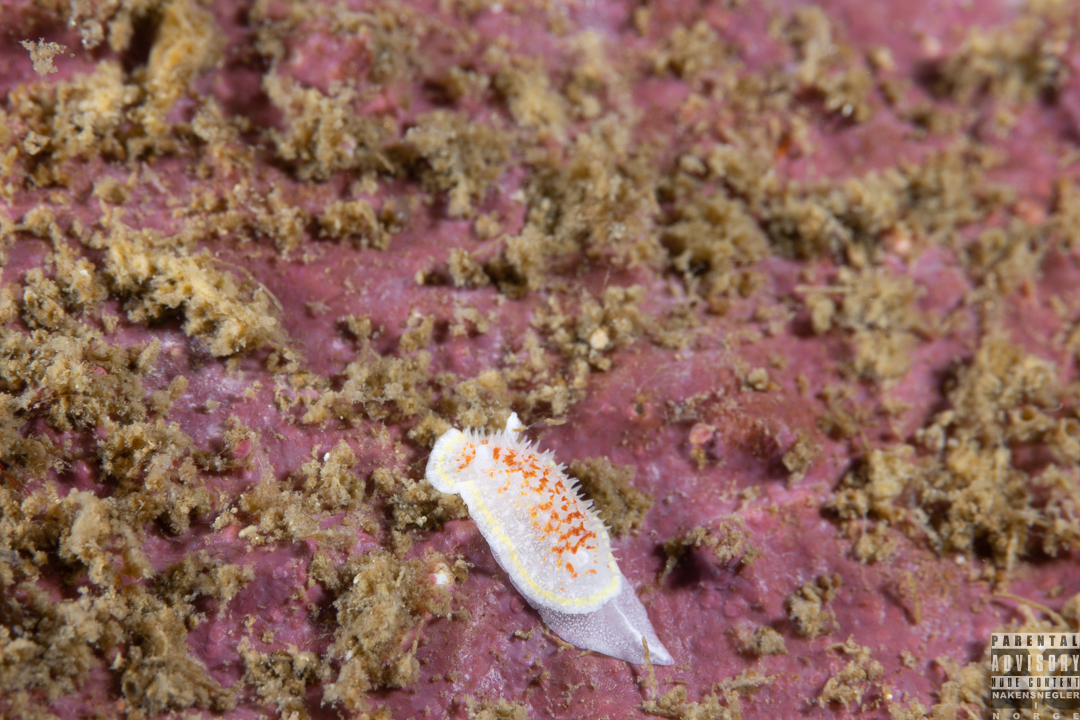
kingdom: Animalia
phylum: Mollusca
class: Gastropoda
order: Nudibranchia
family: Calycidorididae
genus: Diaphorodoris
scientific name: Diaphorodoris luteocincta
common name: Fried egg nudibranch
